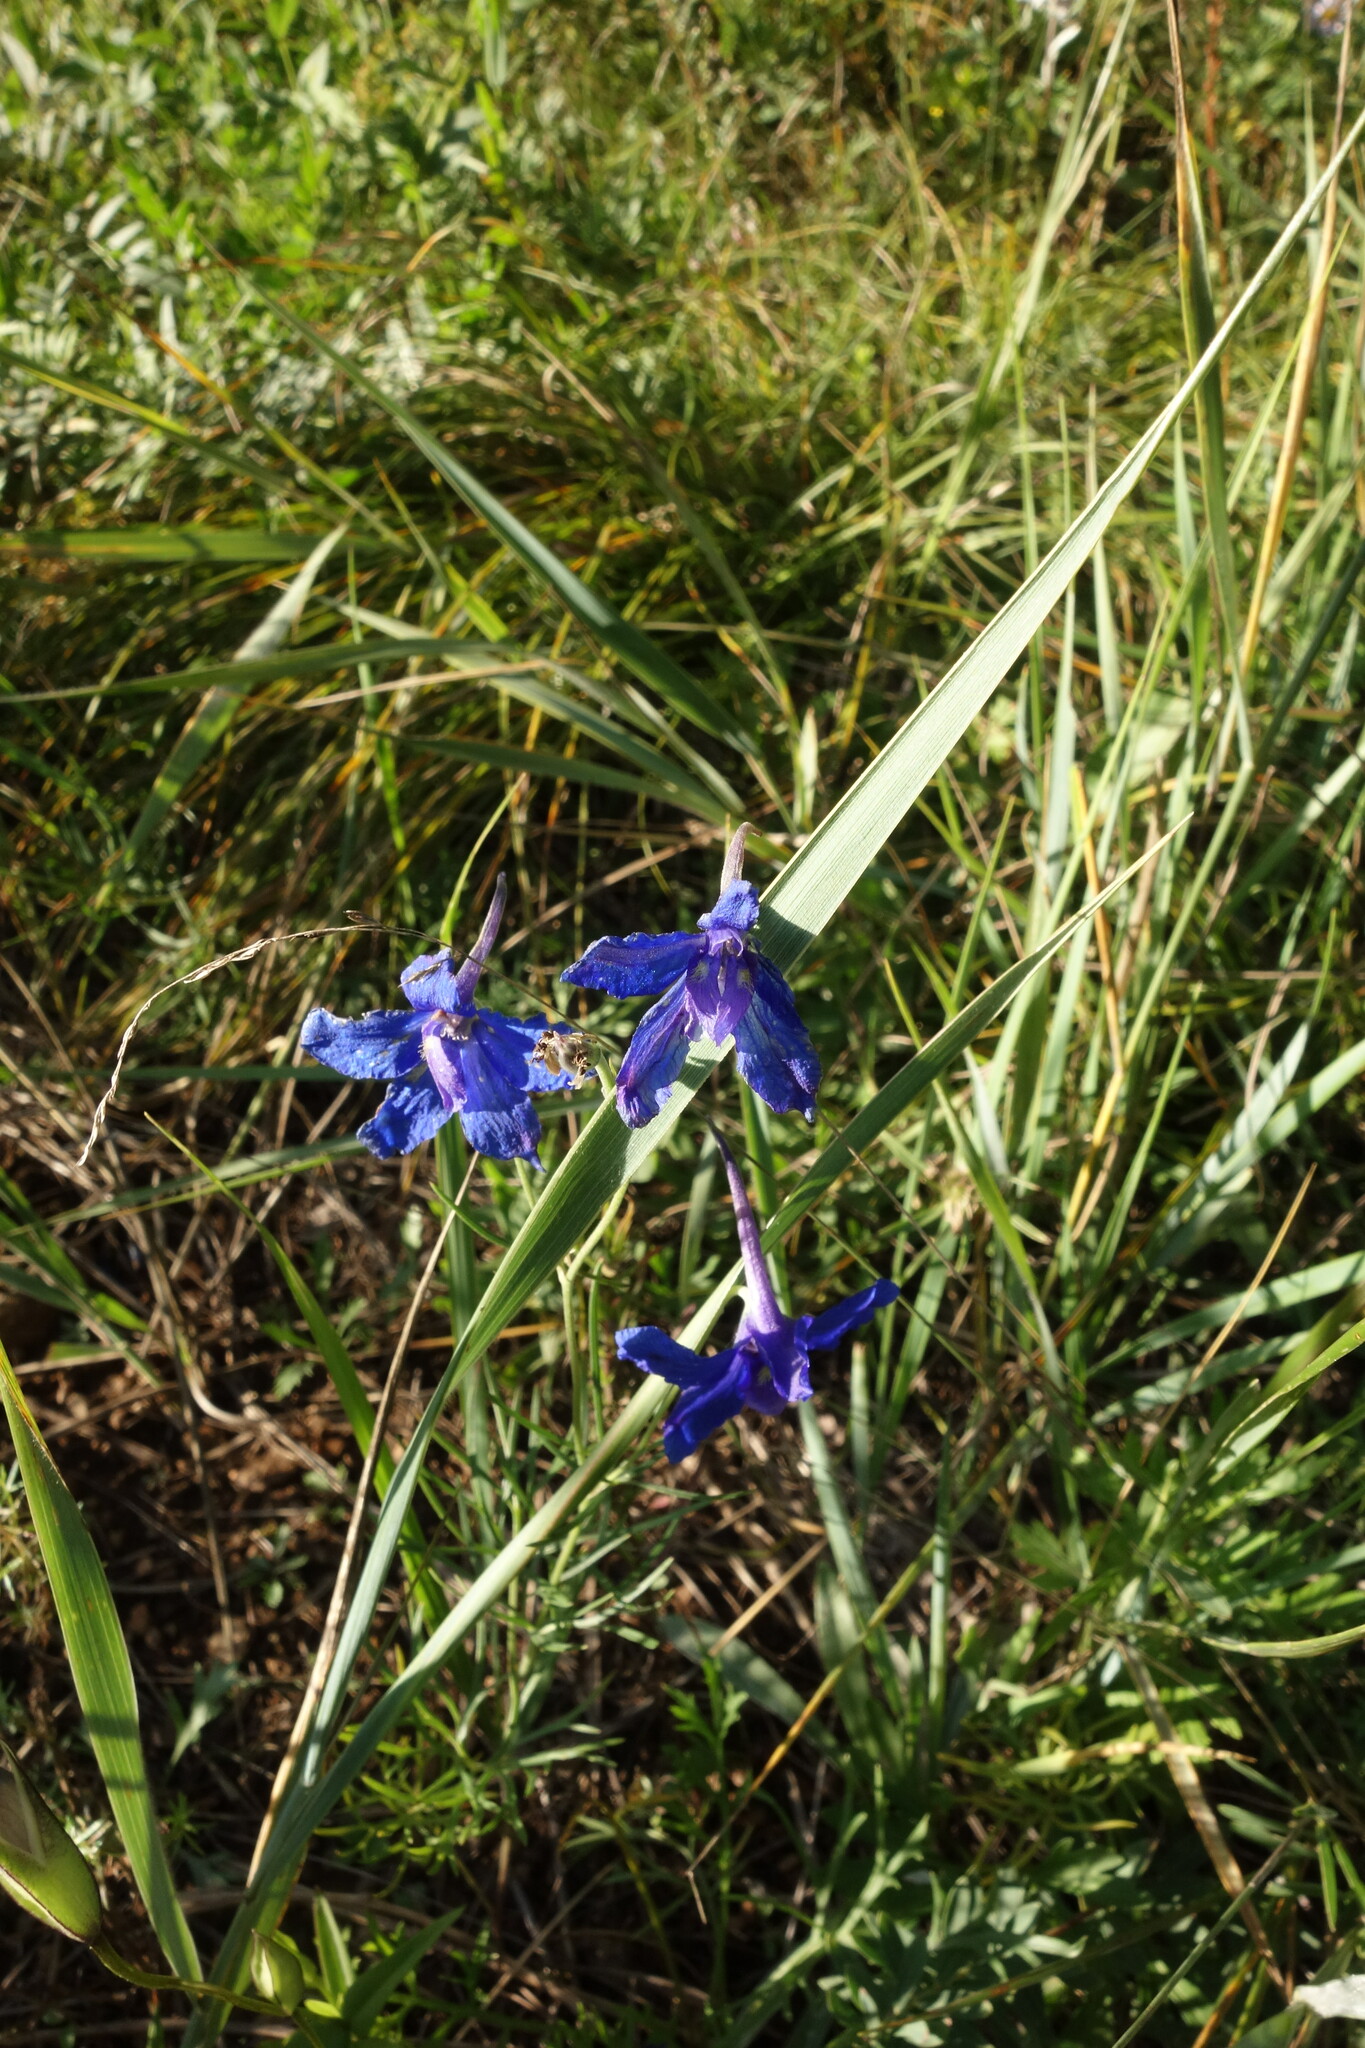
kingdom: Plantae
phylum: Tracheophyta
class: Magnoliopsida
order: Ranunculales
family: Ranunculaceae
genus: Delphinium
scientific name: Delphinium grandiflorum
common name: Siberian larkspur
